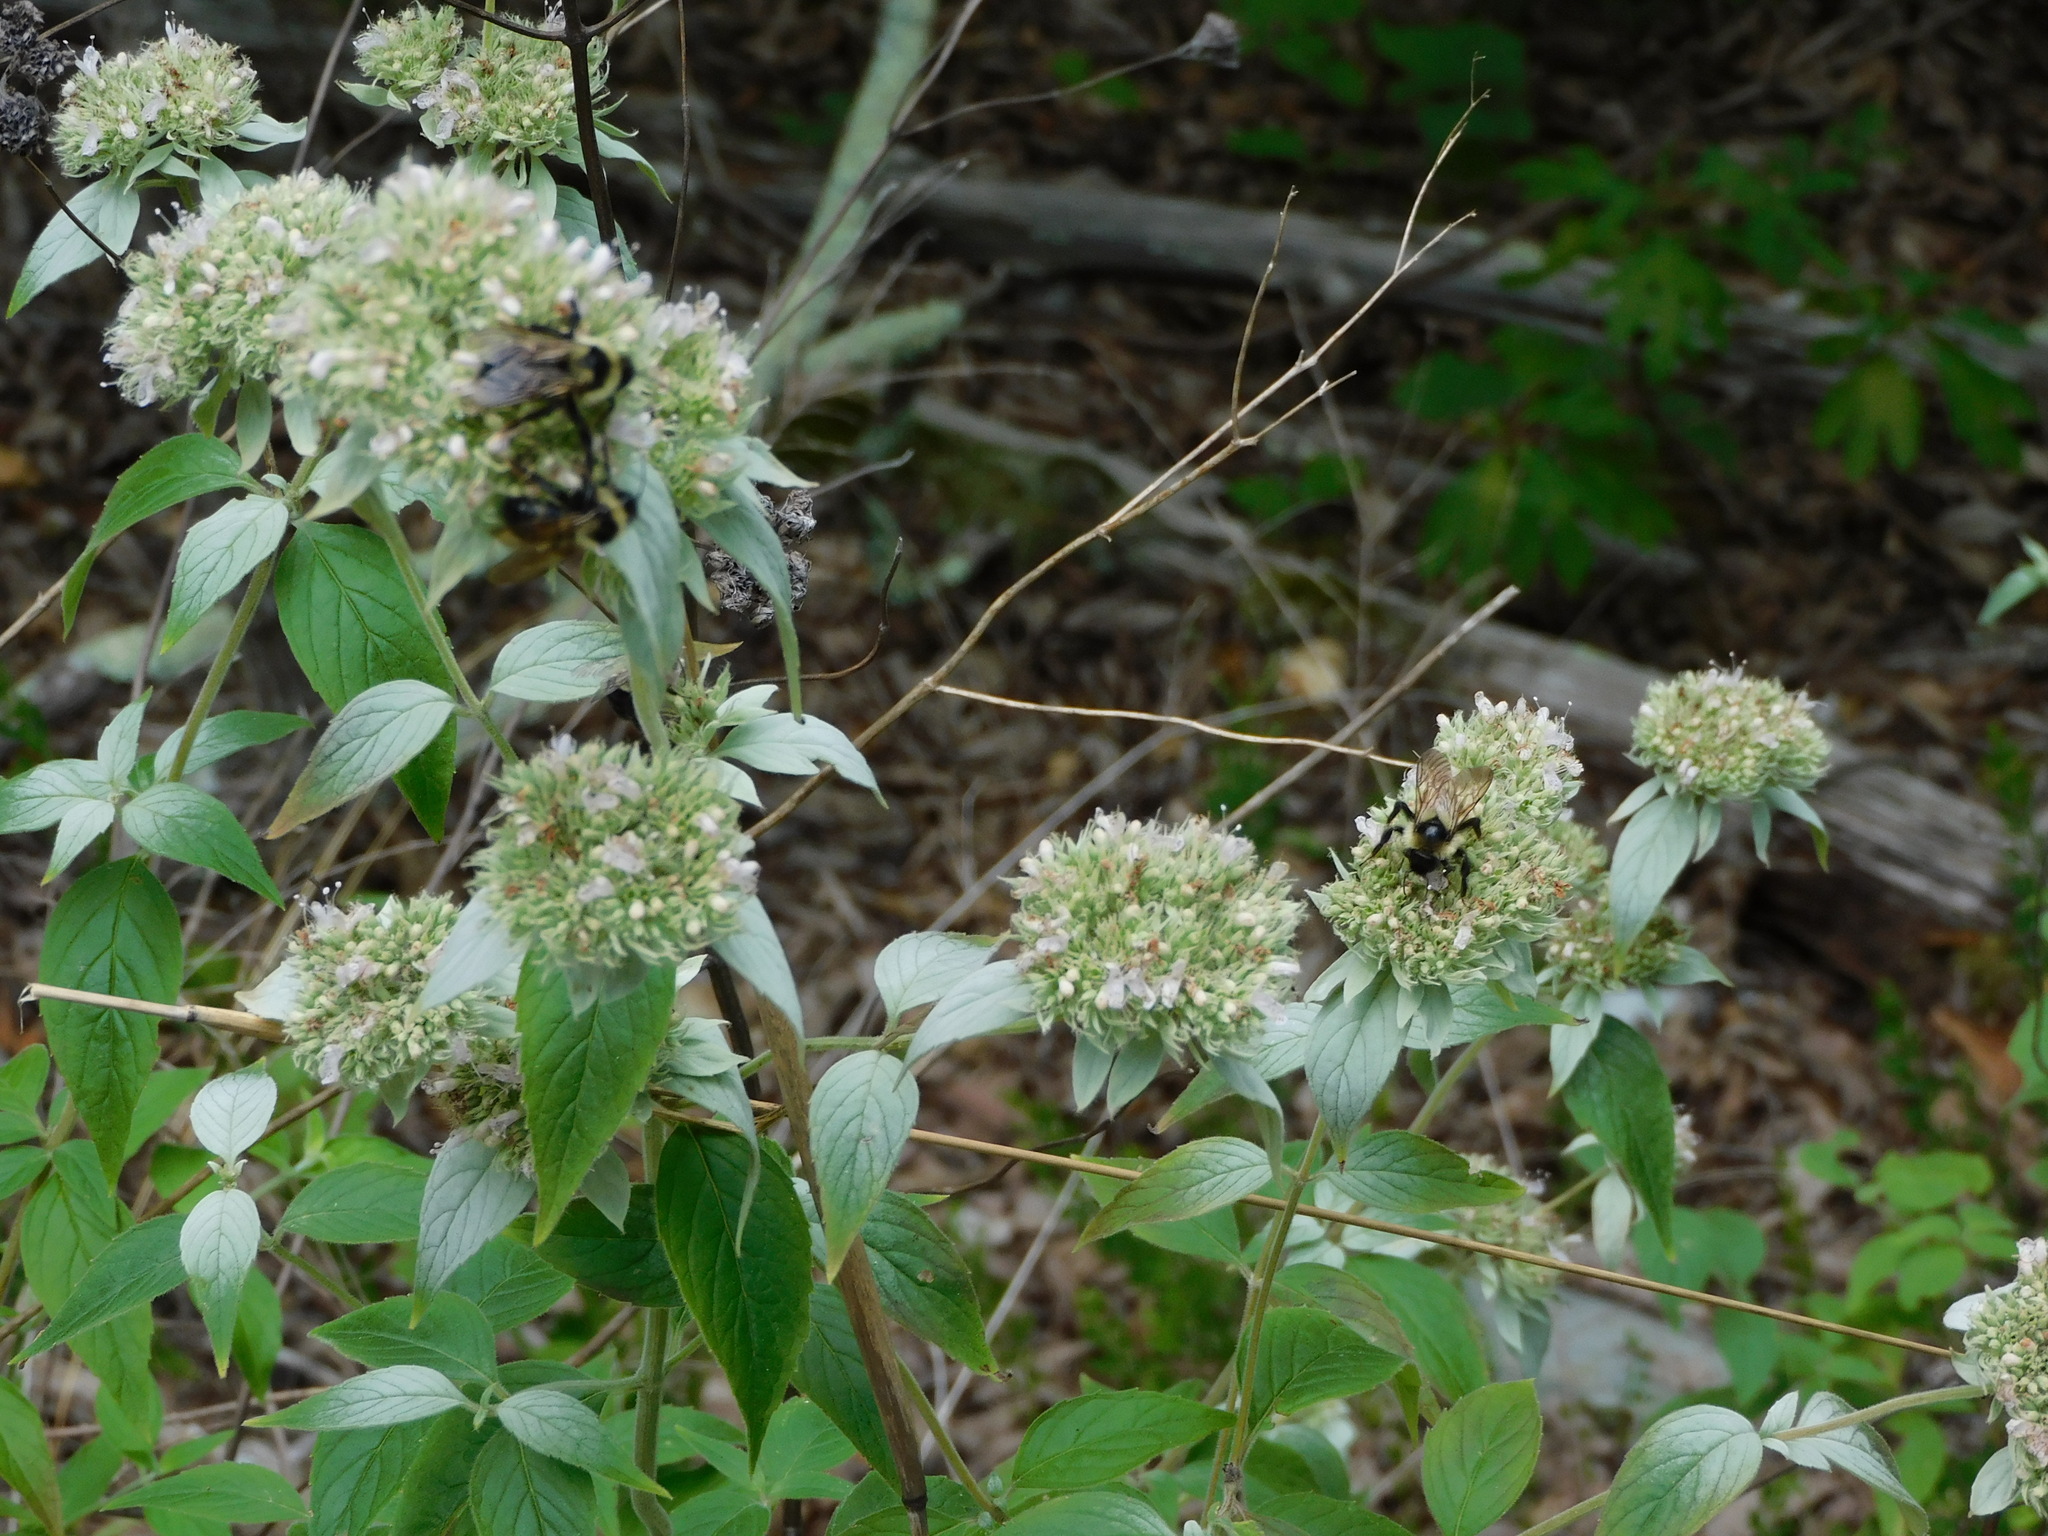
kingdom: Animalia
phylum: Arthropoda
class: Insecta
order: Hymenoptera
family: Apidae
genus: Bombus
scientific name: Bombus citrinus
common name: Lemon cuckoo bumble bee
